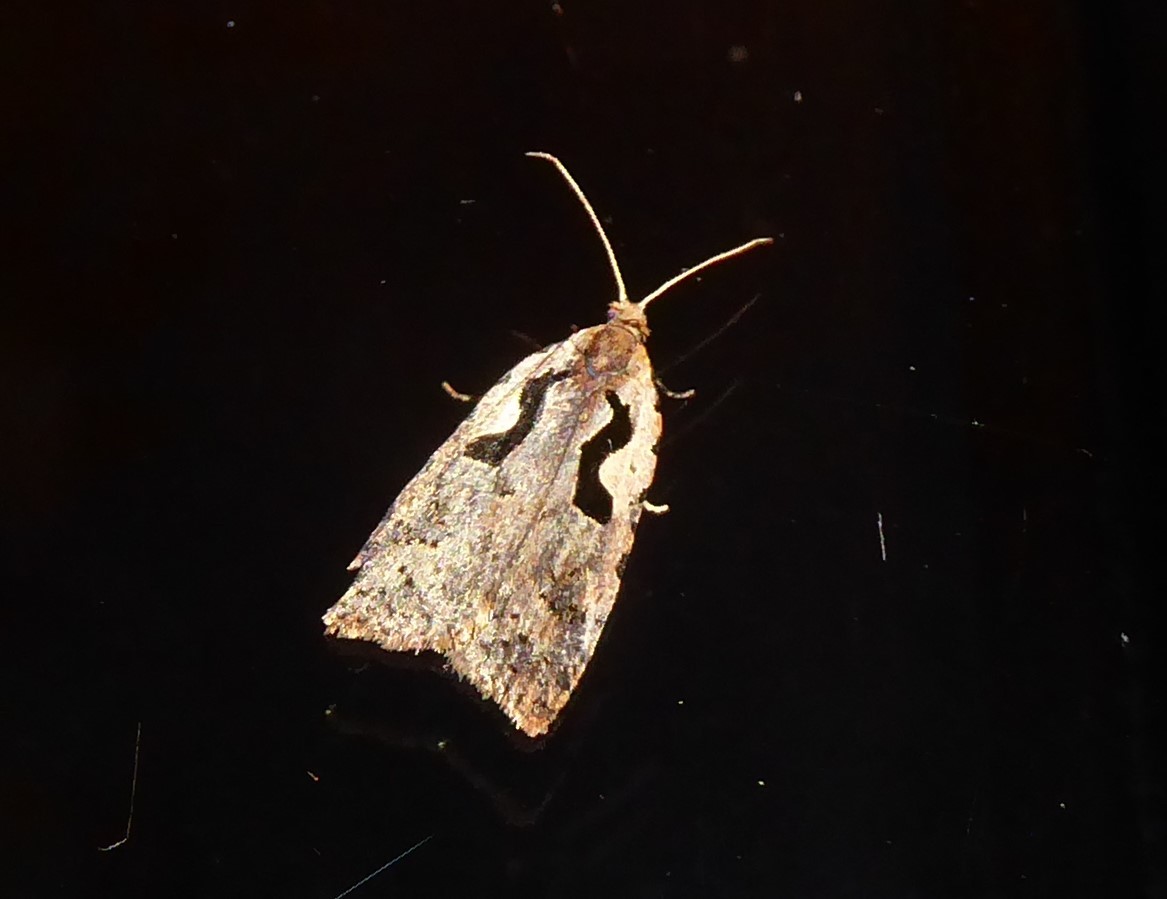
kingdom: Animalia
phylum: Arthropoda
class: Insecta
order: Lepidoptera
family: Tortricidae
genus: Cnephasia
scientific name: Cnephasia jactatana
